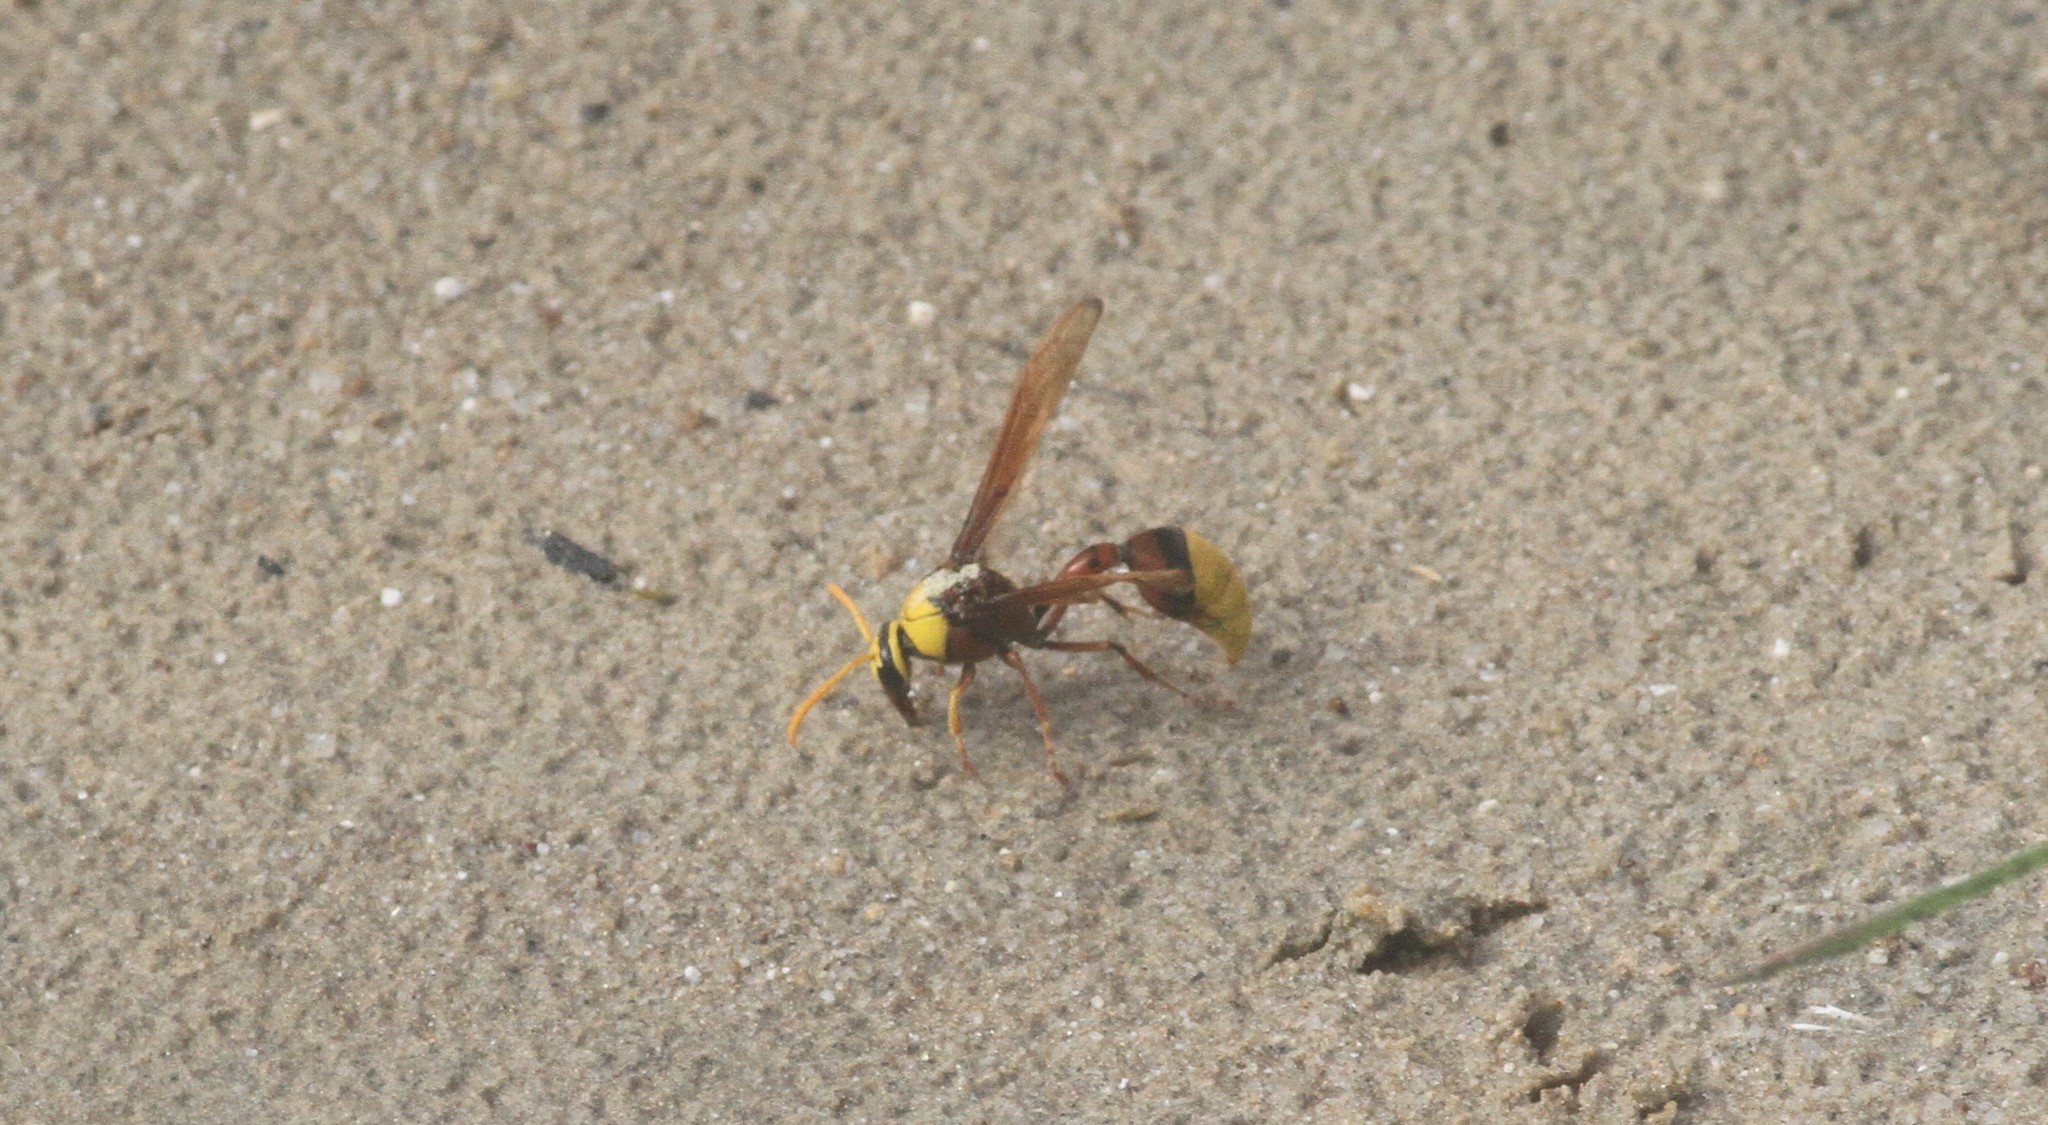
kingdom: Animalia
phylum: Arthropoda
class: Insecta
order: Hymenoptera
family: Eumenidae
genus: Delta
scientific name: Delta pyriforme
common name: Wasp
